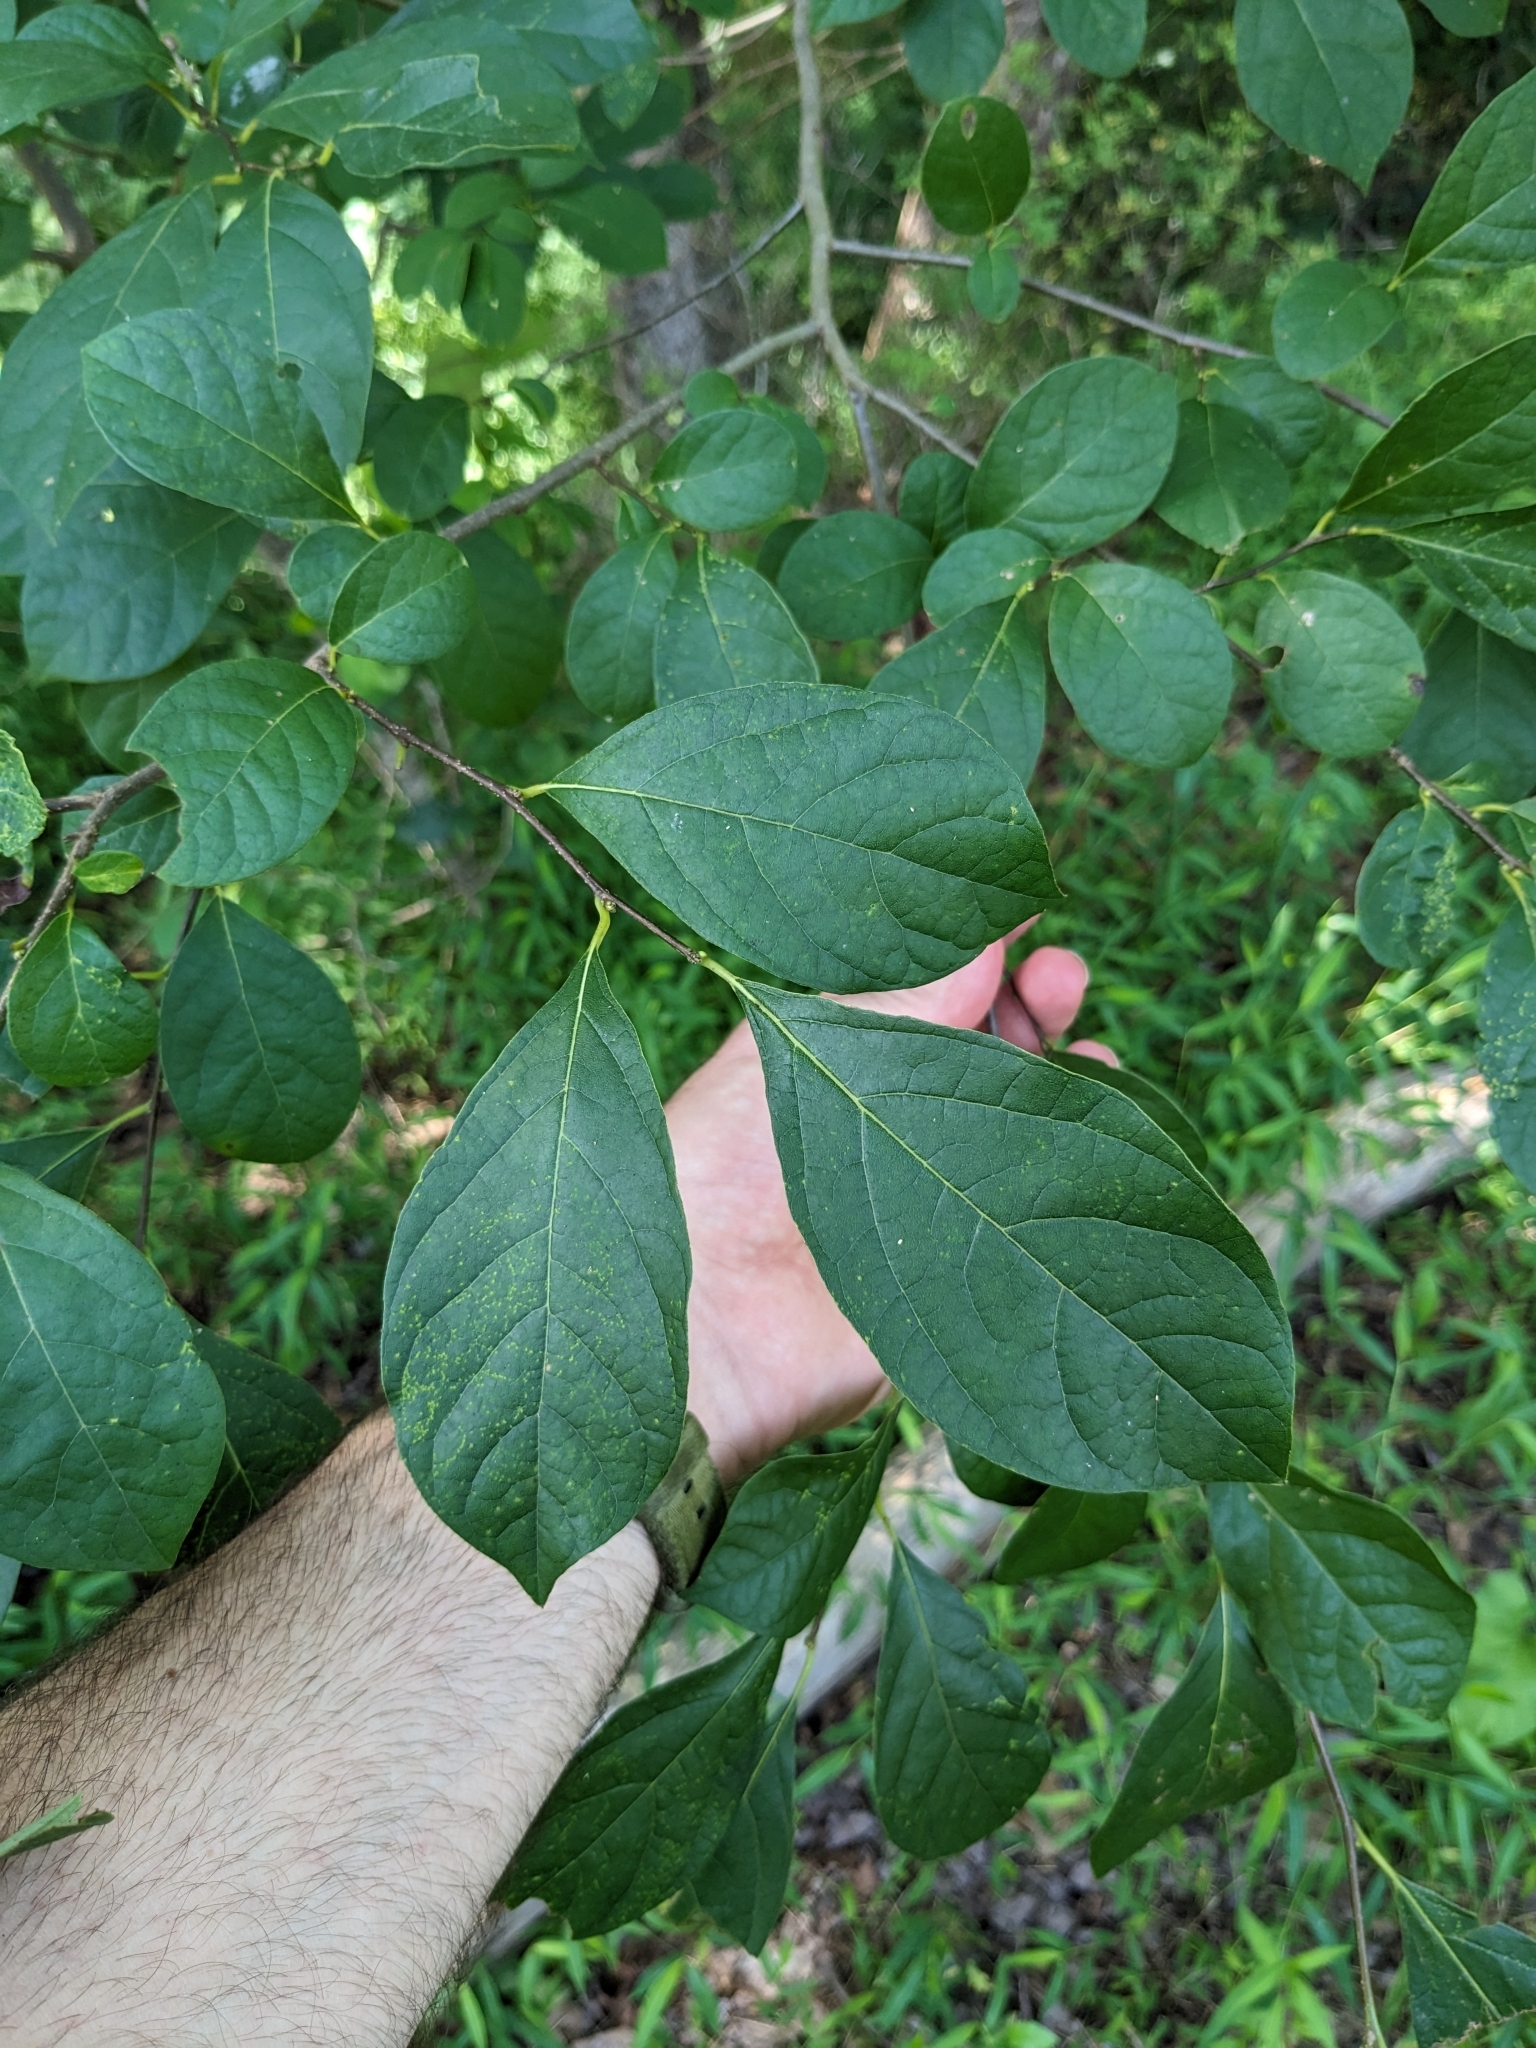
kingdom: Plantae
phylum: Tracheophyta
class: Magnoliopsida
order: Laurales
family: Lauraceae
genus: Lindera
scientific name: Lindera benzoin
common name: Spicebush
